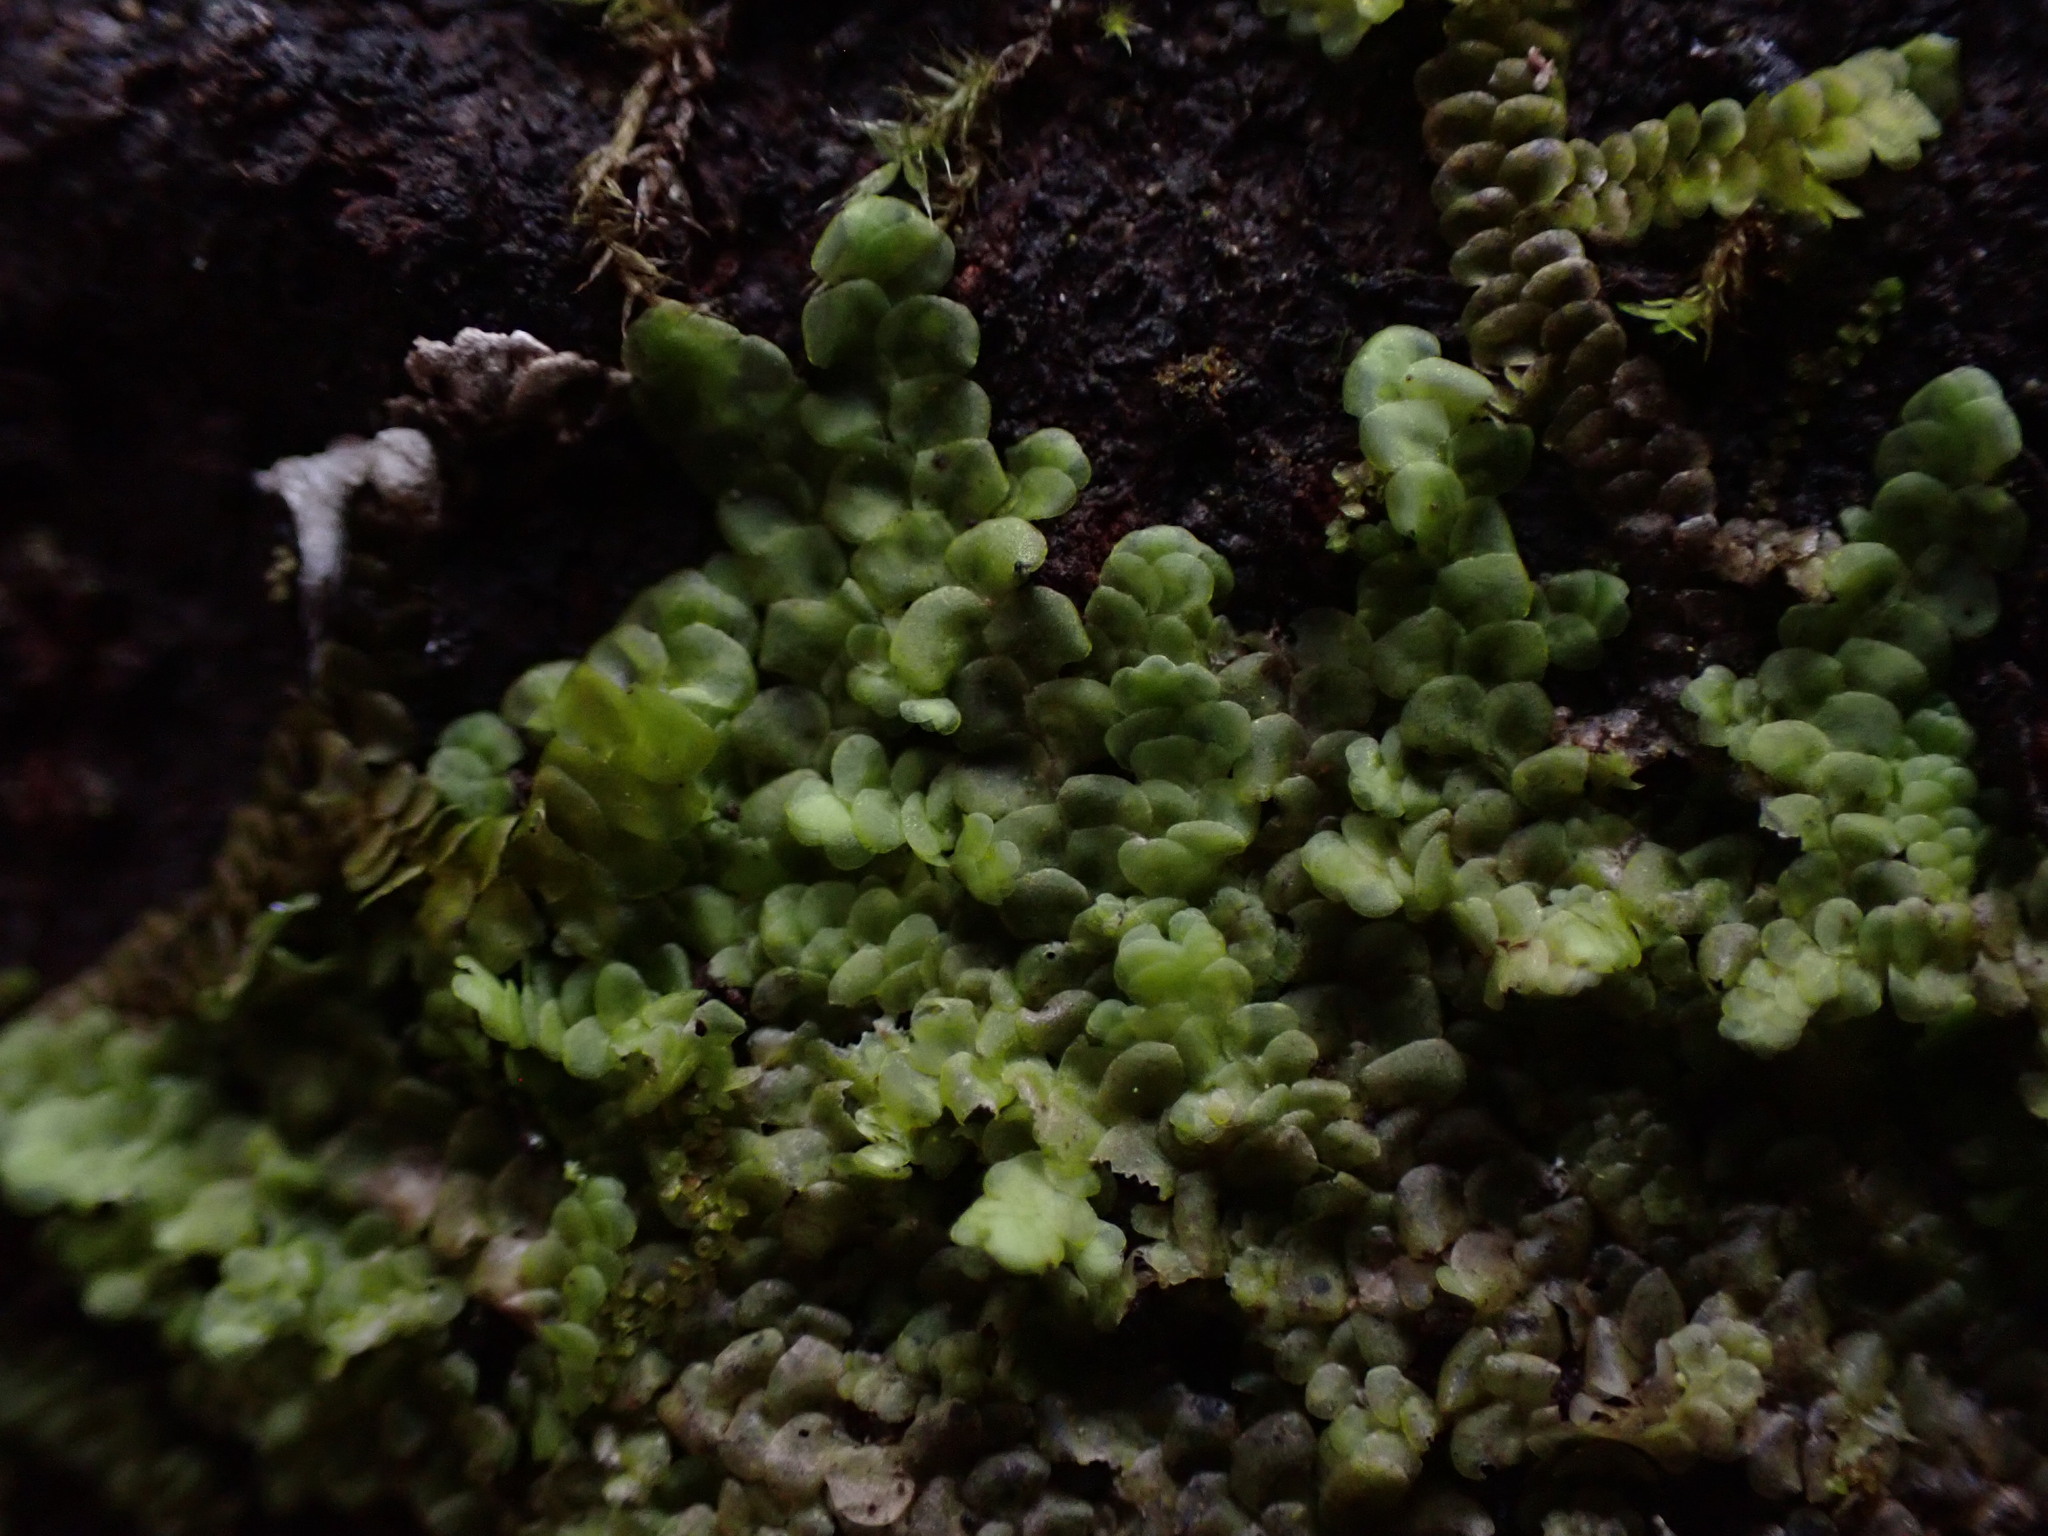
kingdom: Plantae
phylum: Marchantiophyta
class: Jungermanniopsida
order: Porellales
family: Radulaceae
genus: Radula
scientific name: Radula complanata
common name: Flat-leaved scalewort
